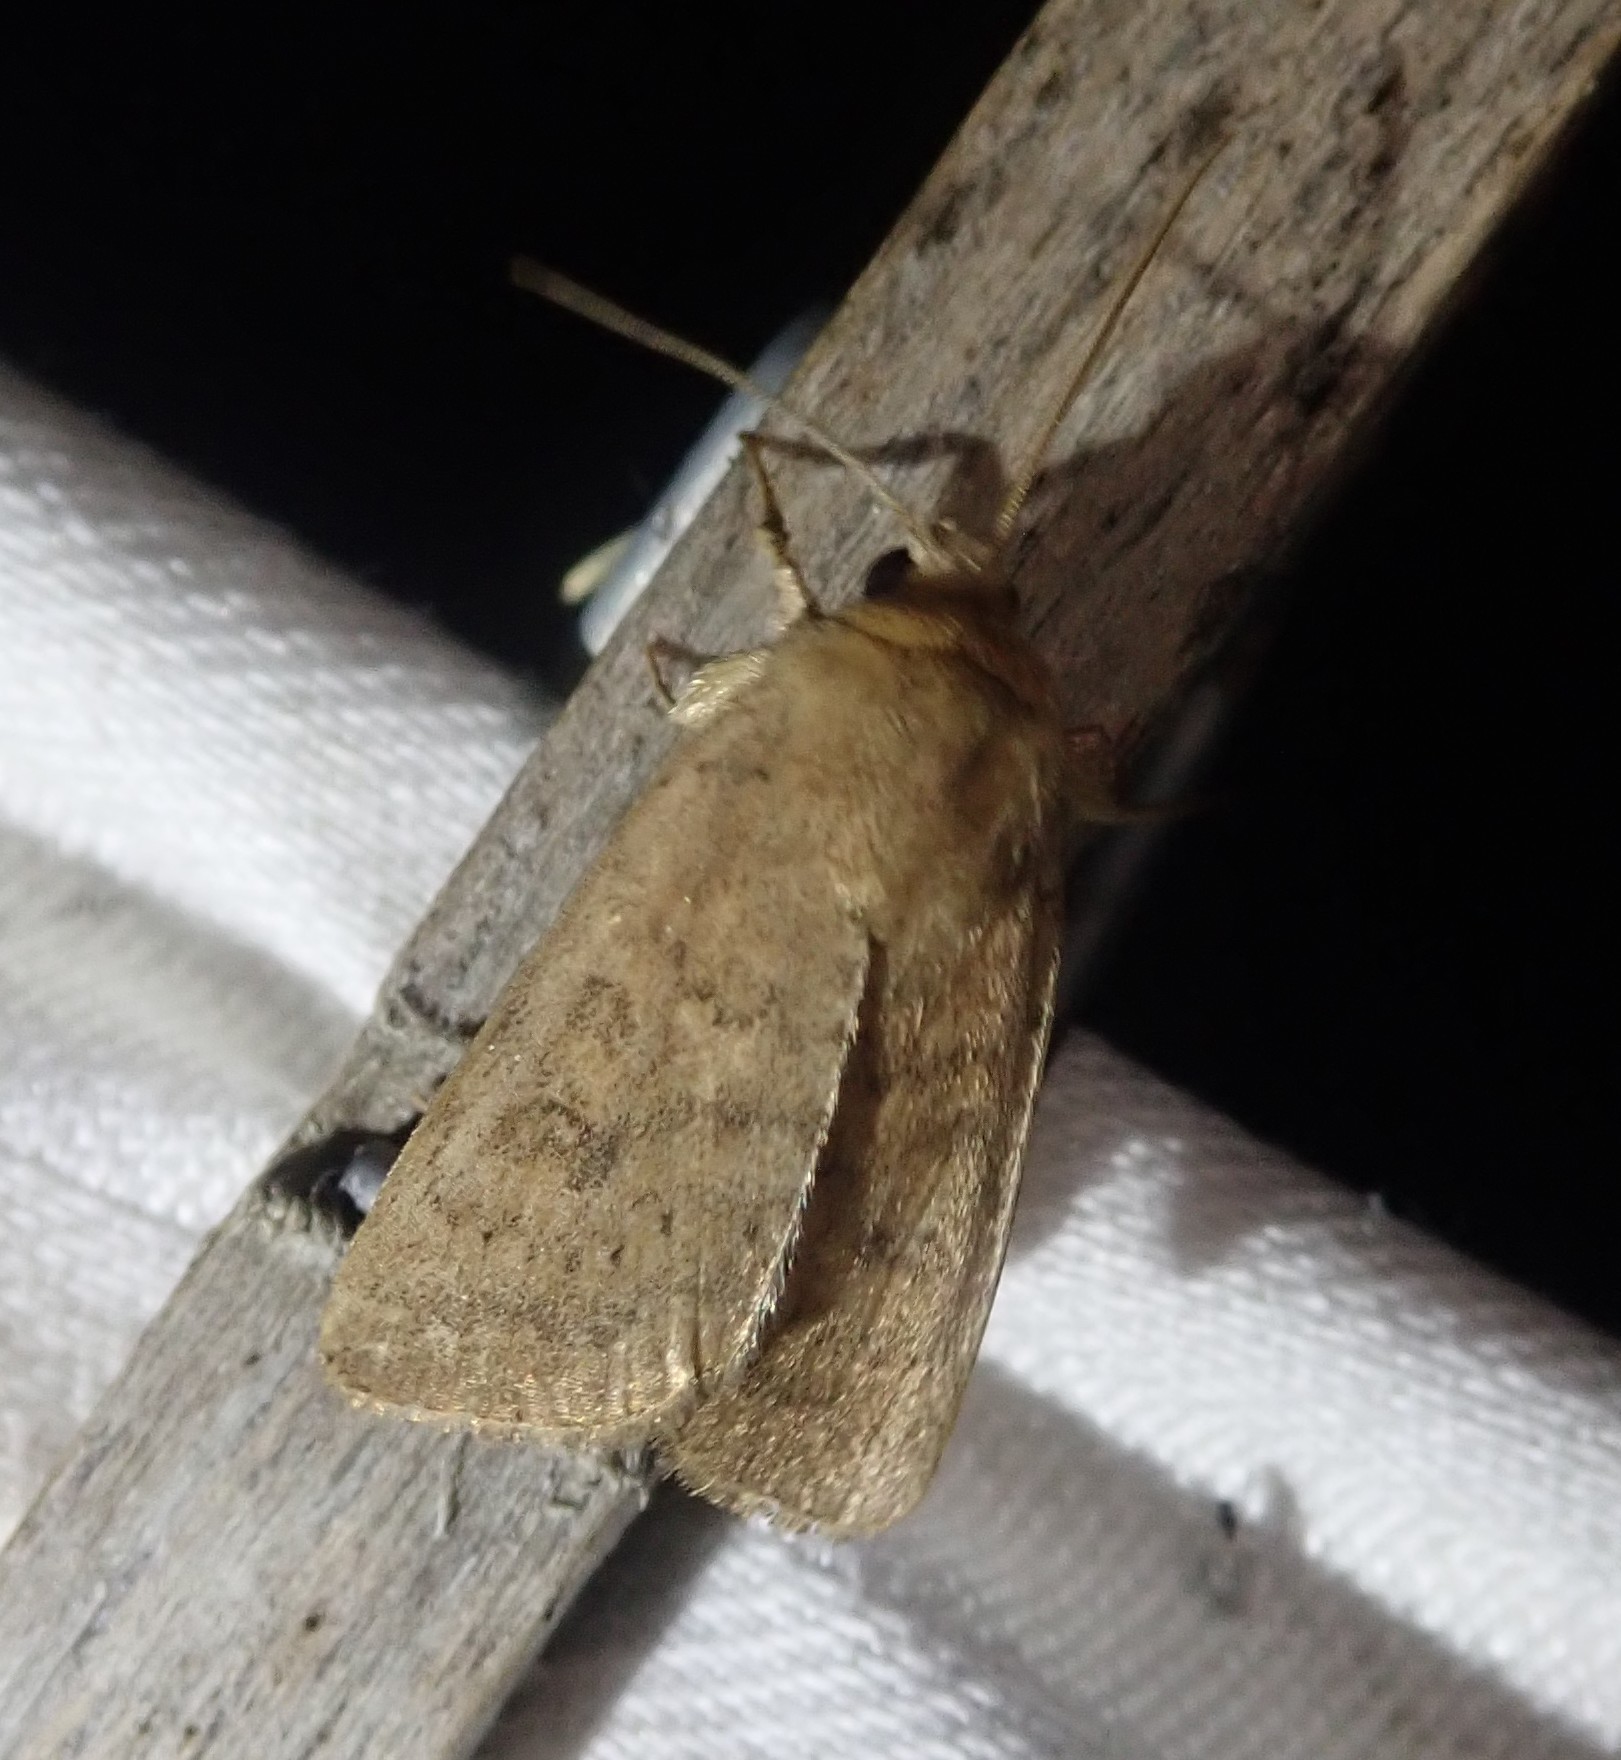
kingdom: Animalia
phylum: Arthropoda
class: Insecta
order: Lepidoptera
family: Noctuidae
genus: Hoplodrina
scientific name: Hoplodrina octogenaria
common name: Uncertain
